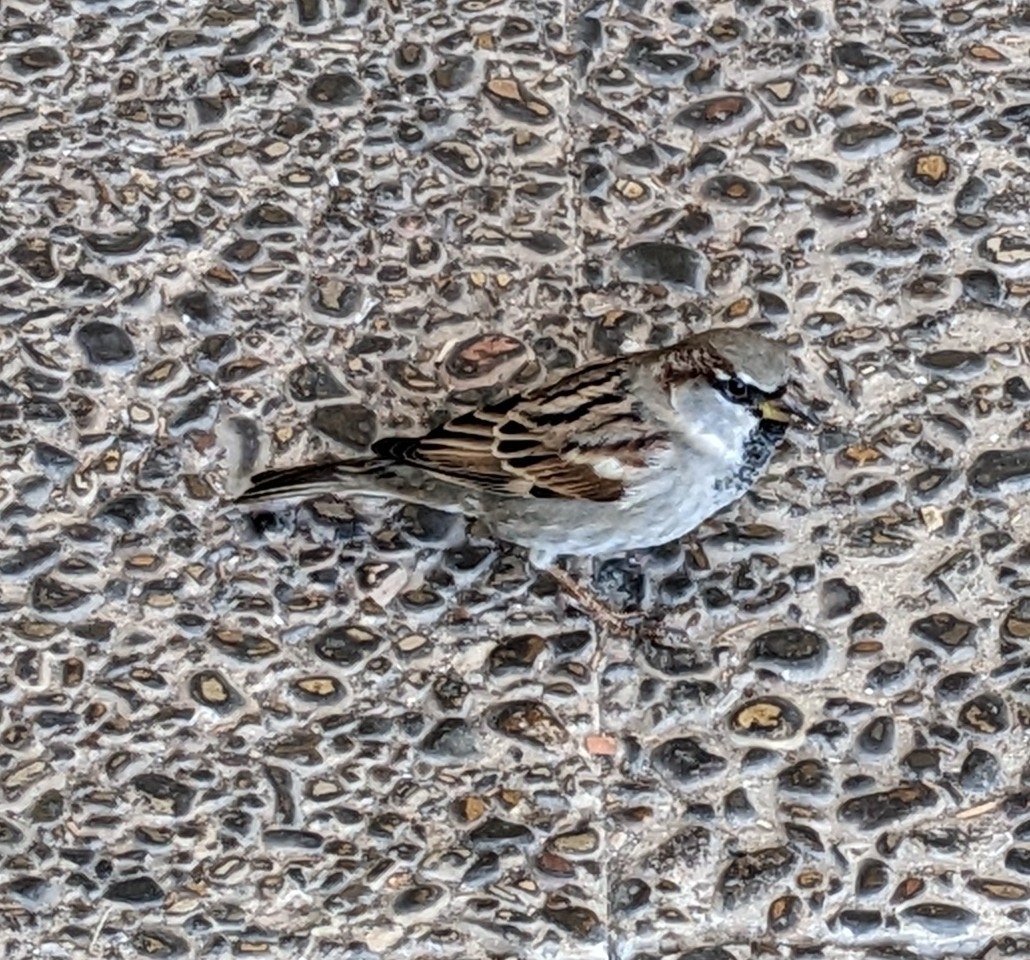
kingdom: Animalia
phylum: Chordata
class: Aves
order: Passeriformes
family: Passeridae
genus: Passer
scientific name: Passer domesticus
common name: House sparrow
